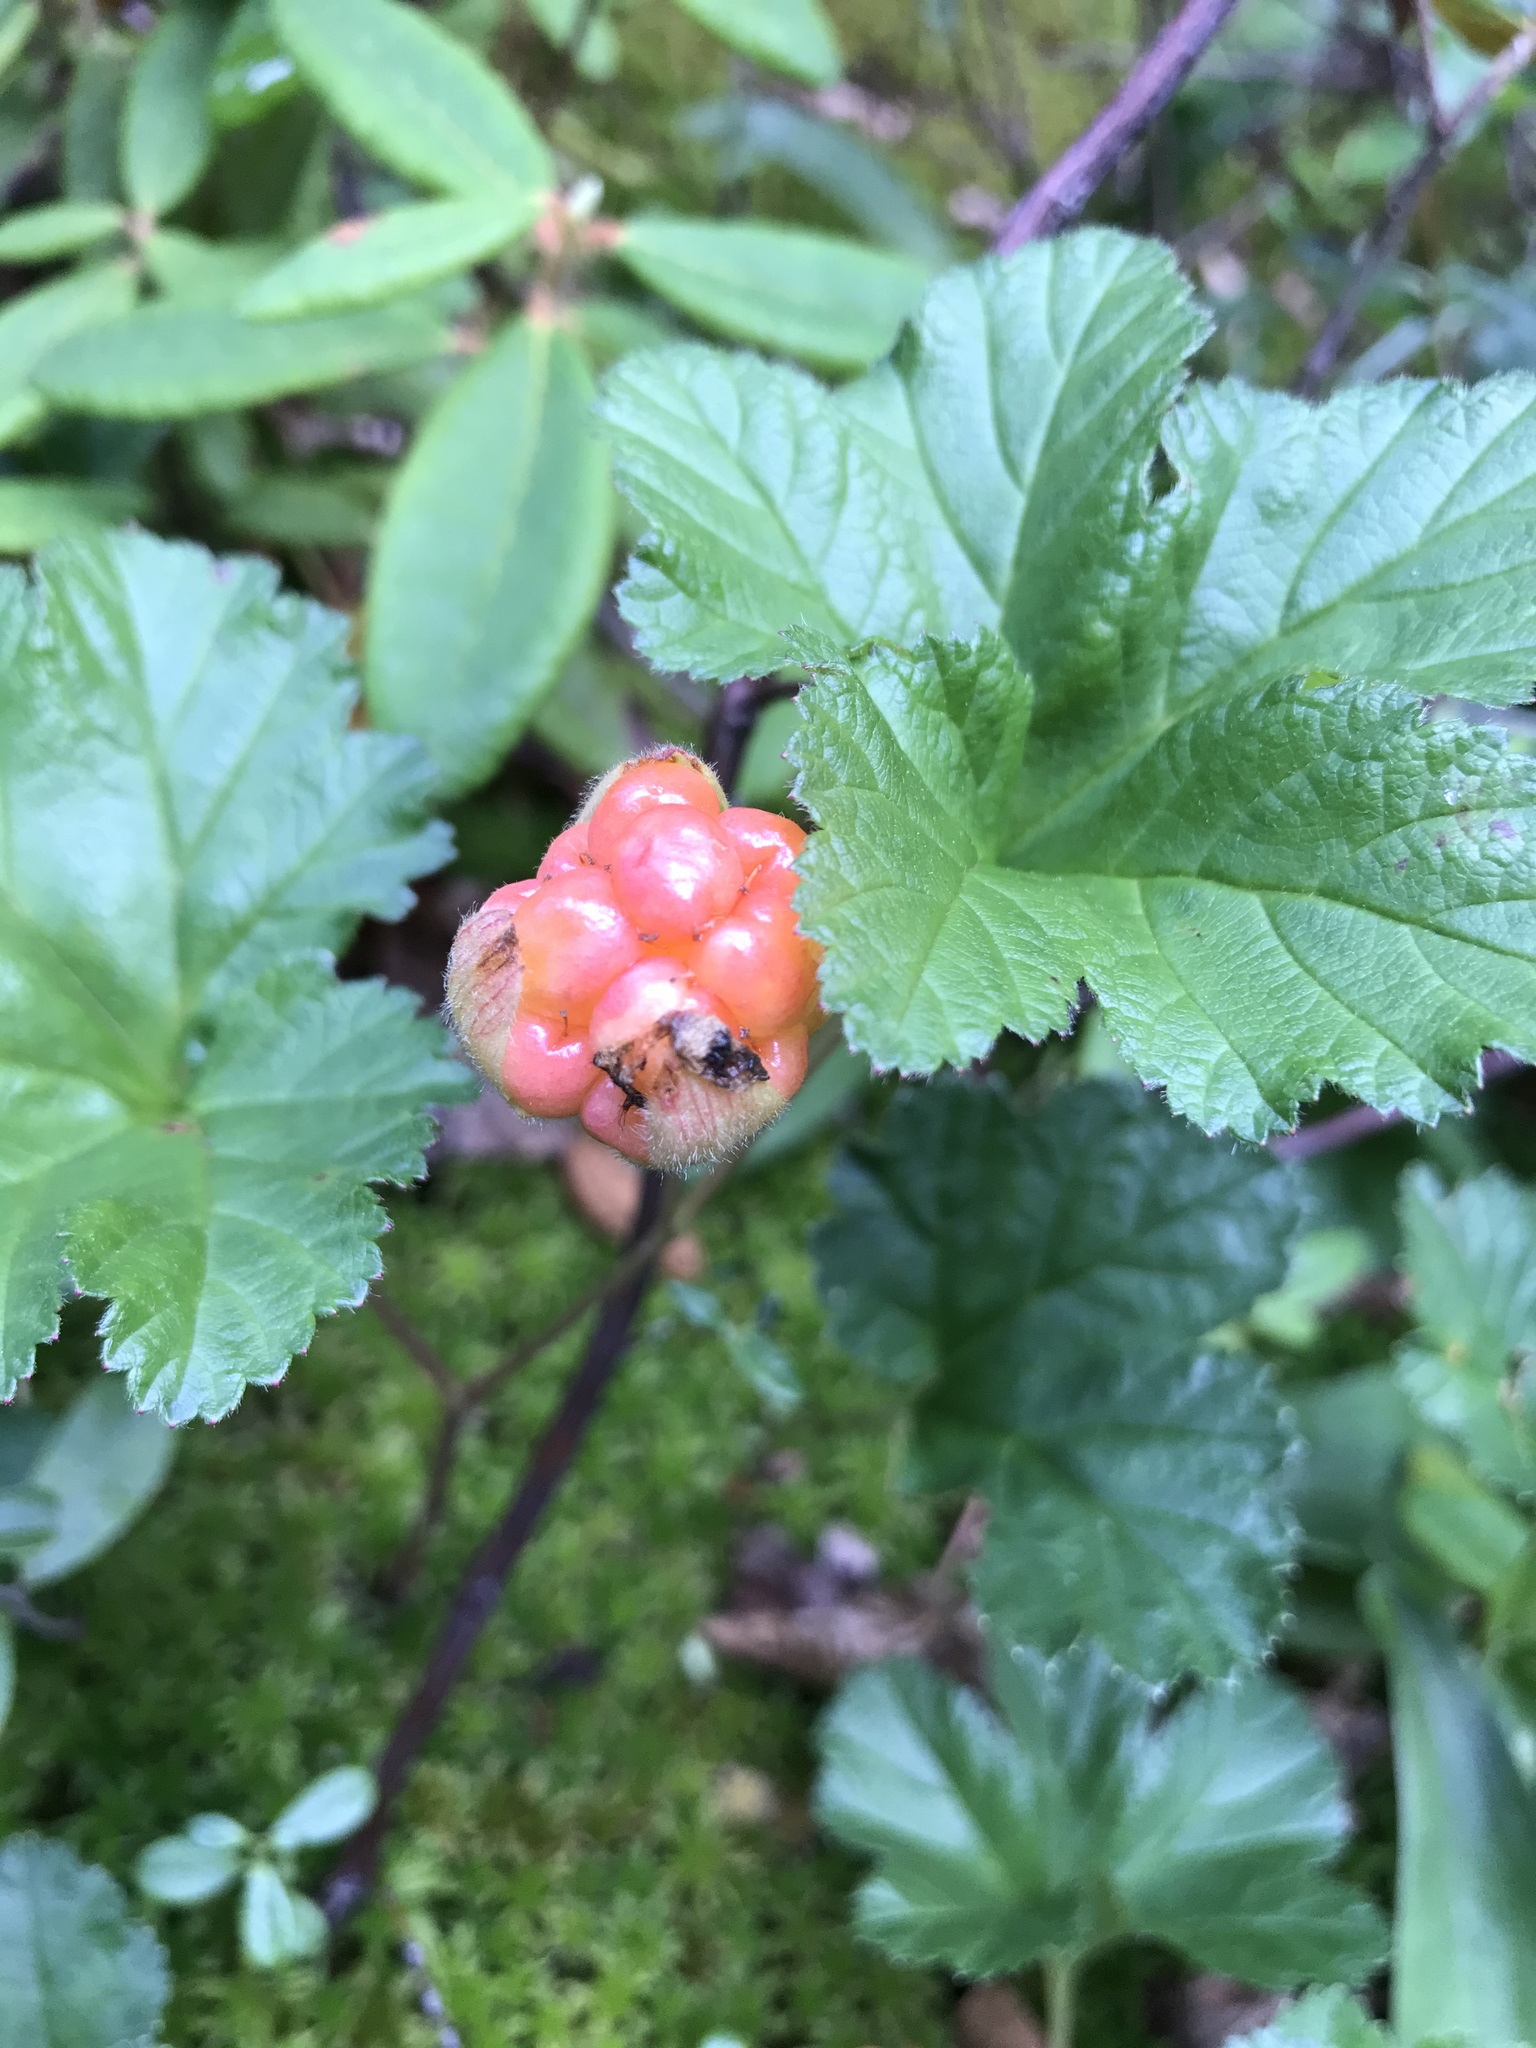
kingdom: Plantae
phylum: Tracheophyta
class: Magnoliopsida
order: Rosales
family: Rosaceae
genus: Rubus
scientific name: Rubus chamaemorus
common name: Cloudberry
